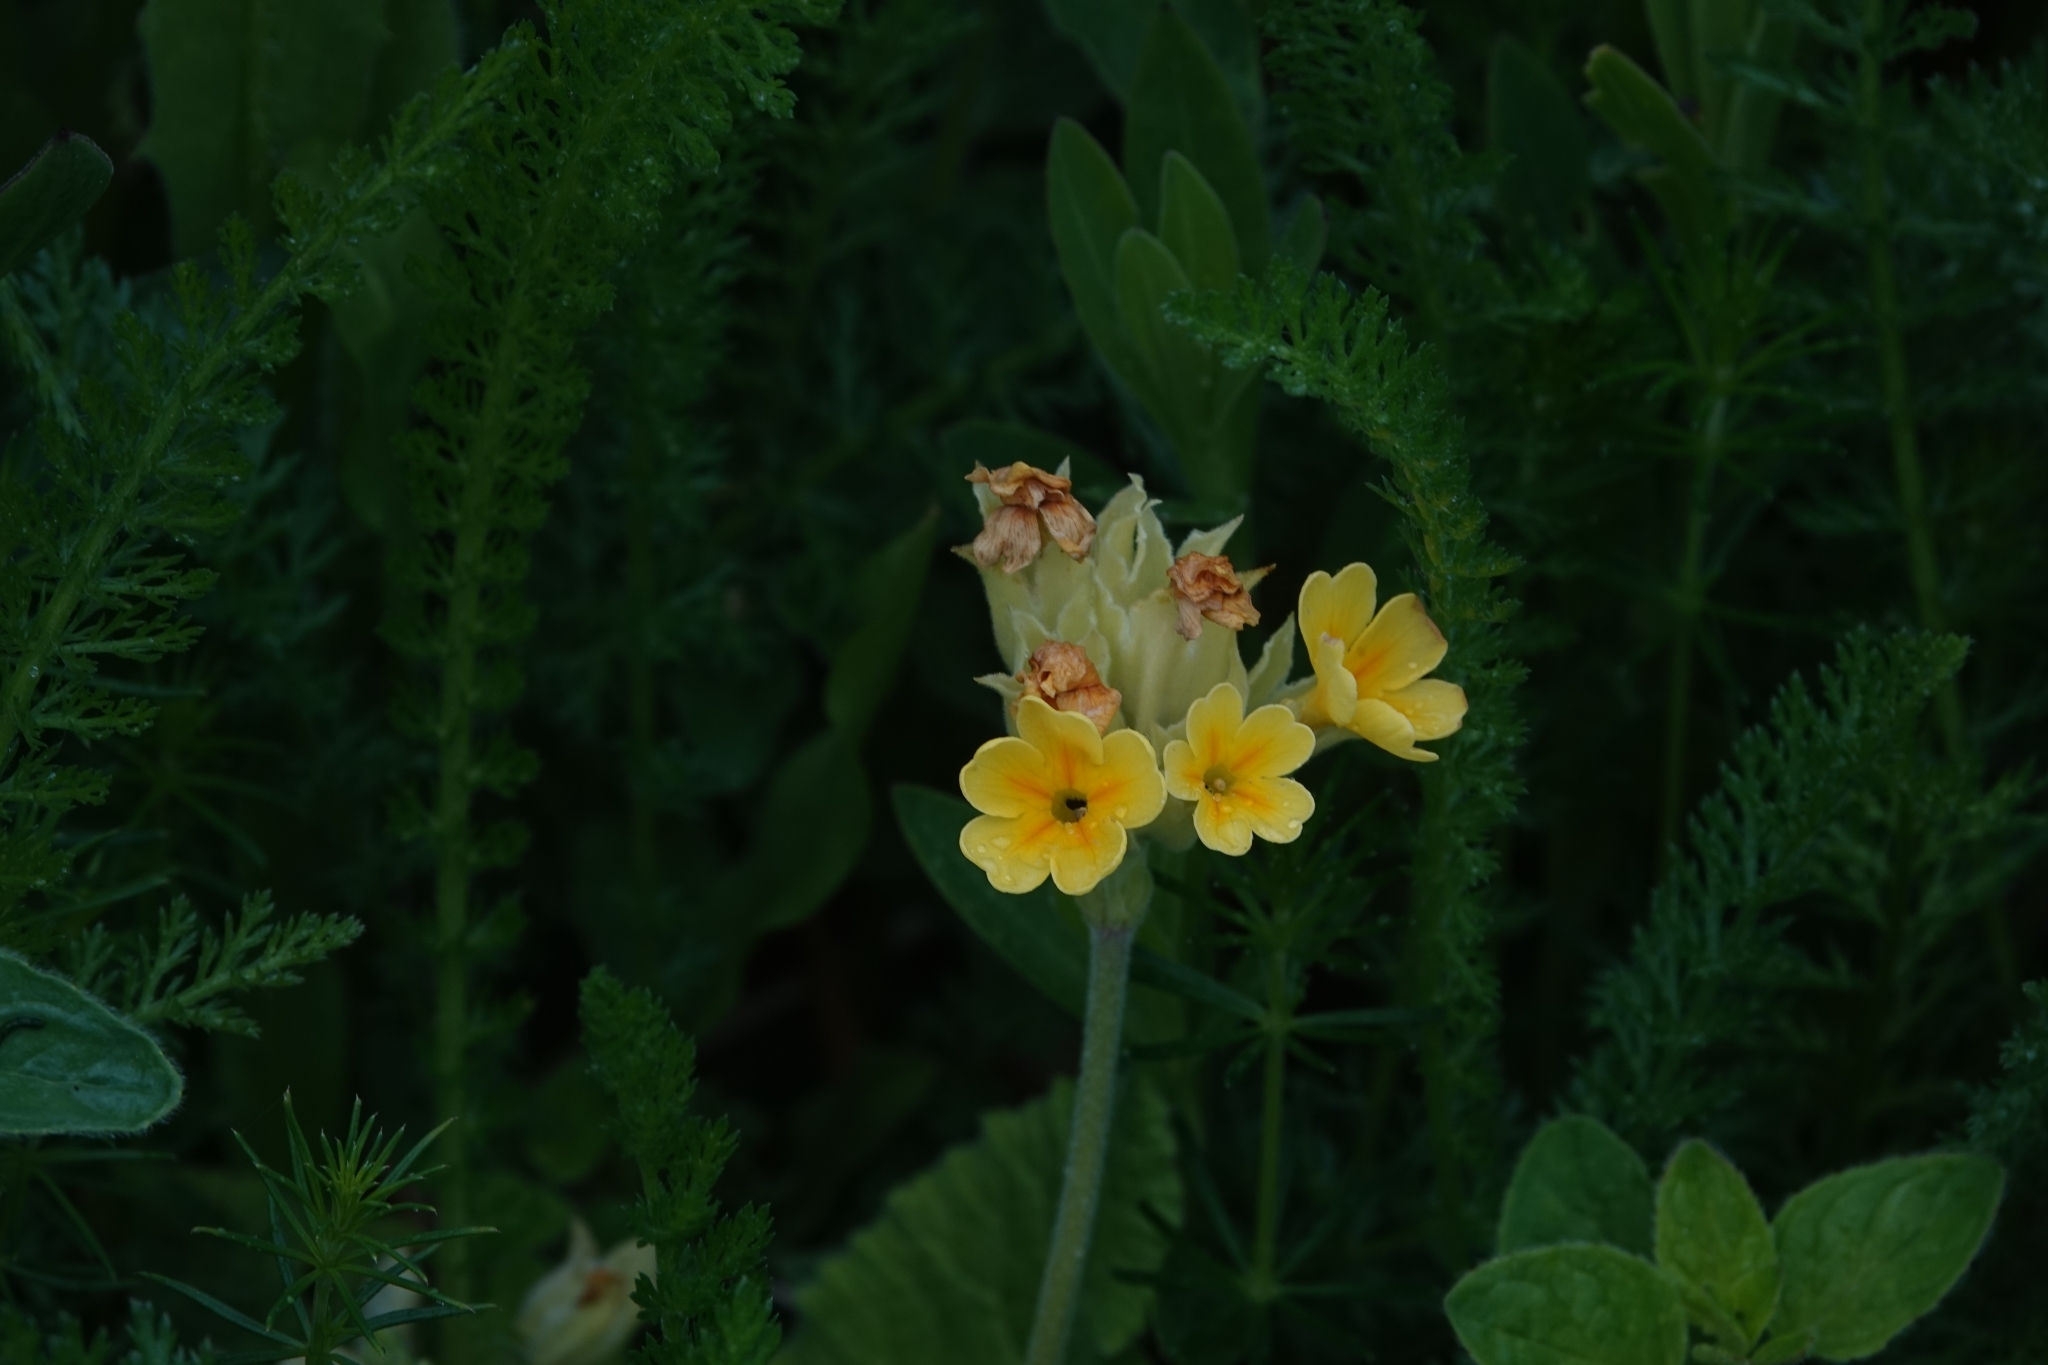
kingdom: Plantae
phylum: Tracheophyta
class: Magnoliopsida
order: Ericales
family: Primulaceae
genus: Primula
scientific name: Primula veris
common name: Cowslip
